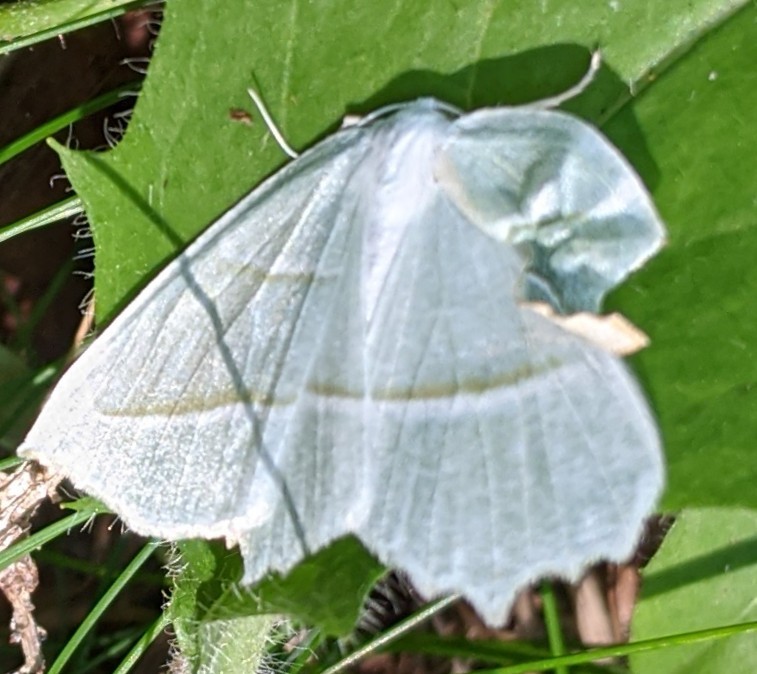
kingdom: Animalia
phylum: Arthropoda
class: Insecta
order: Lepidoptera
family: Geometridae
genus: Campaea
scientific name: Campaea perlata
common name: Fringed looper
